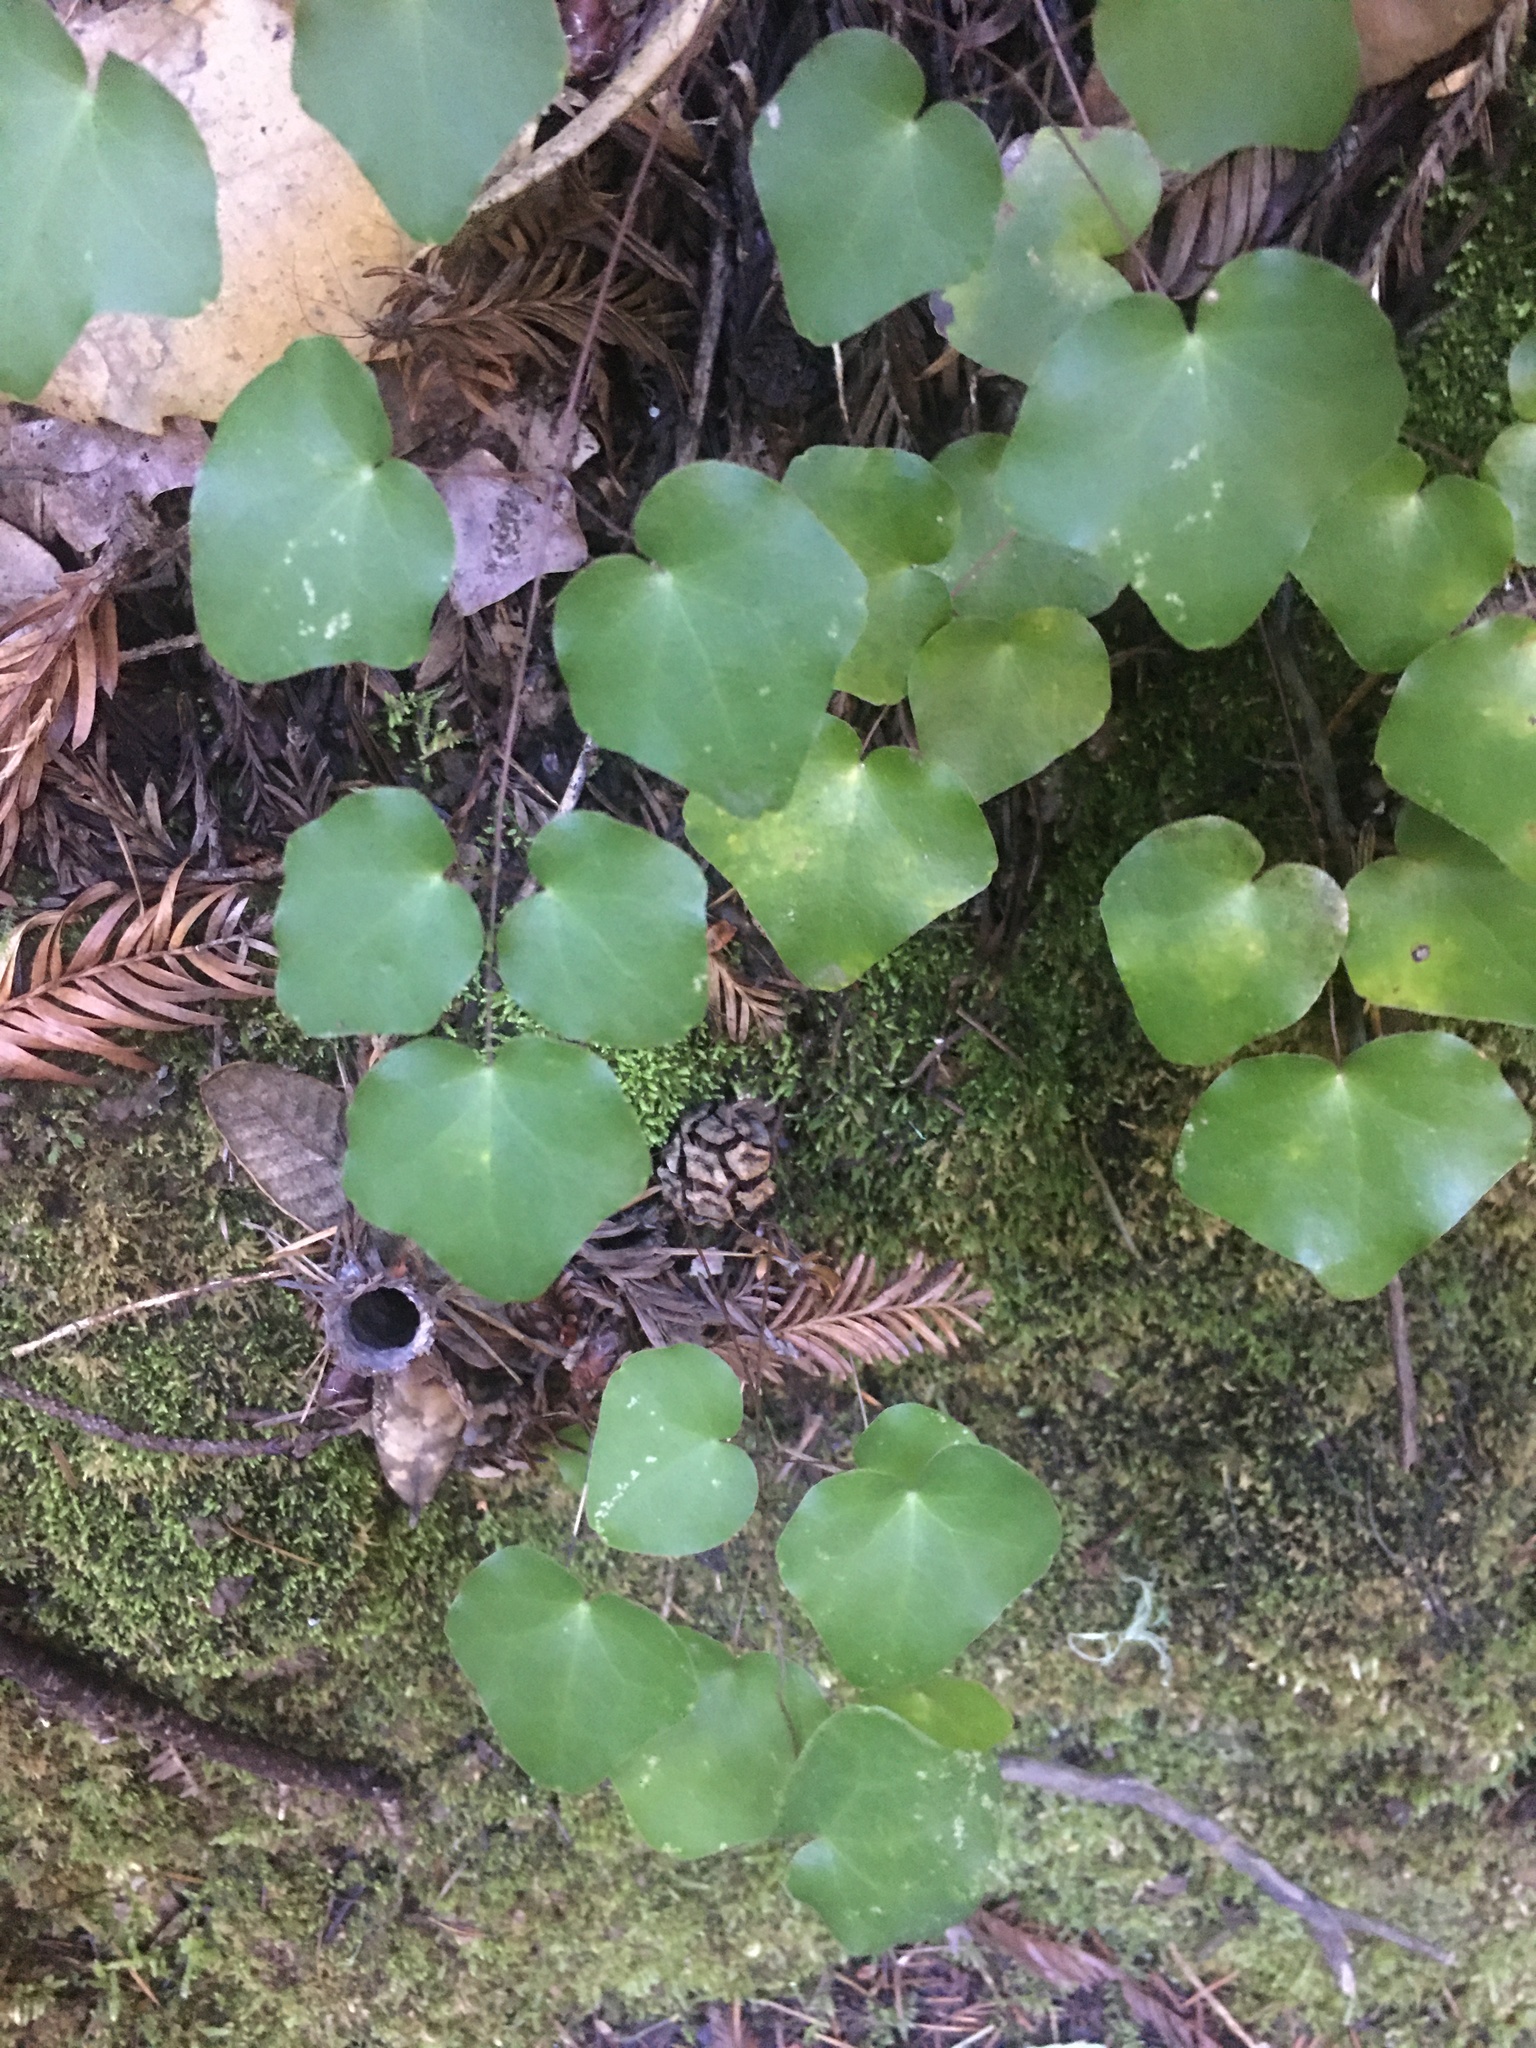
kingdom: Plantae
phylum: Tracheophyta
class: Magnoliopsida
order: Ranunculales
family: Berberidaceae
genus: Vancouveria
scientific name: Vancouveria planipetala
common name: Redwood-ivy
